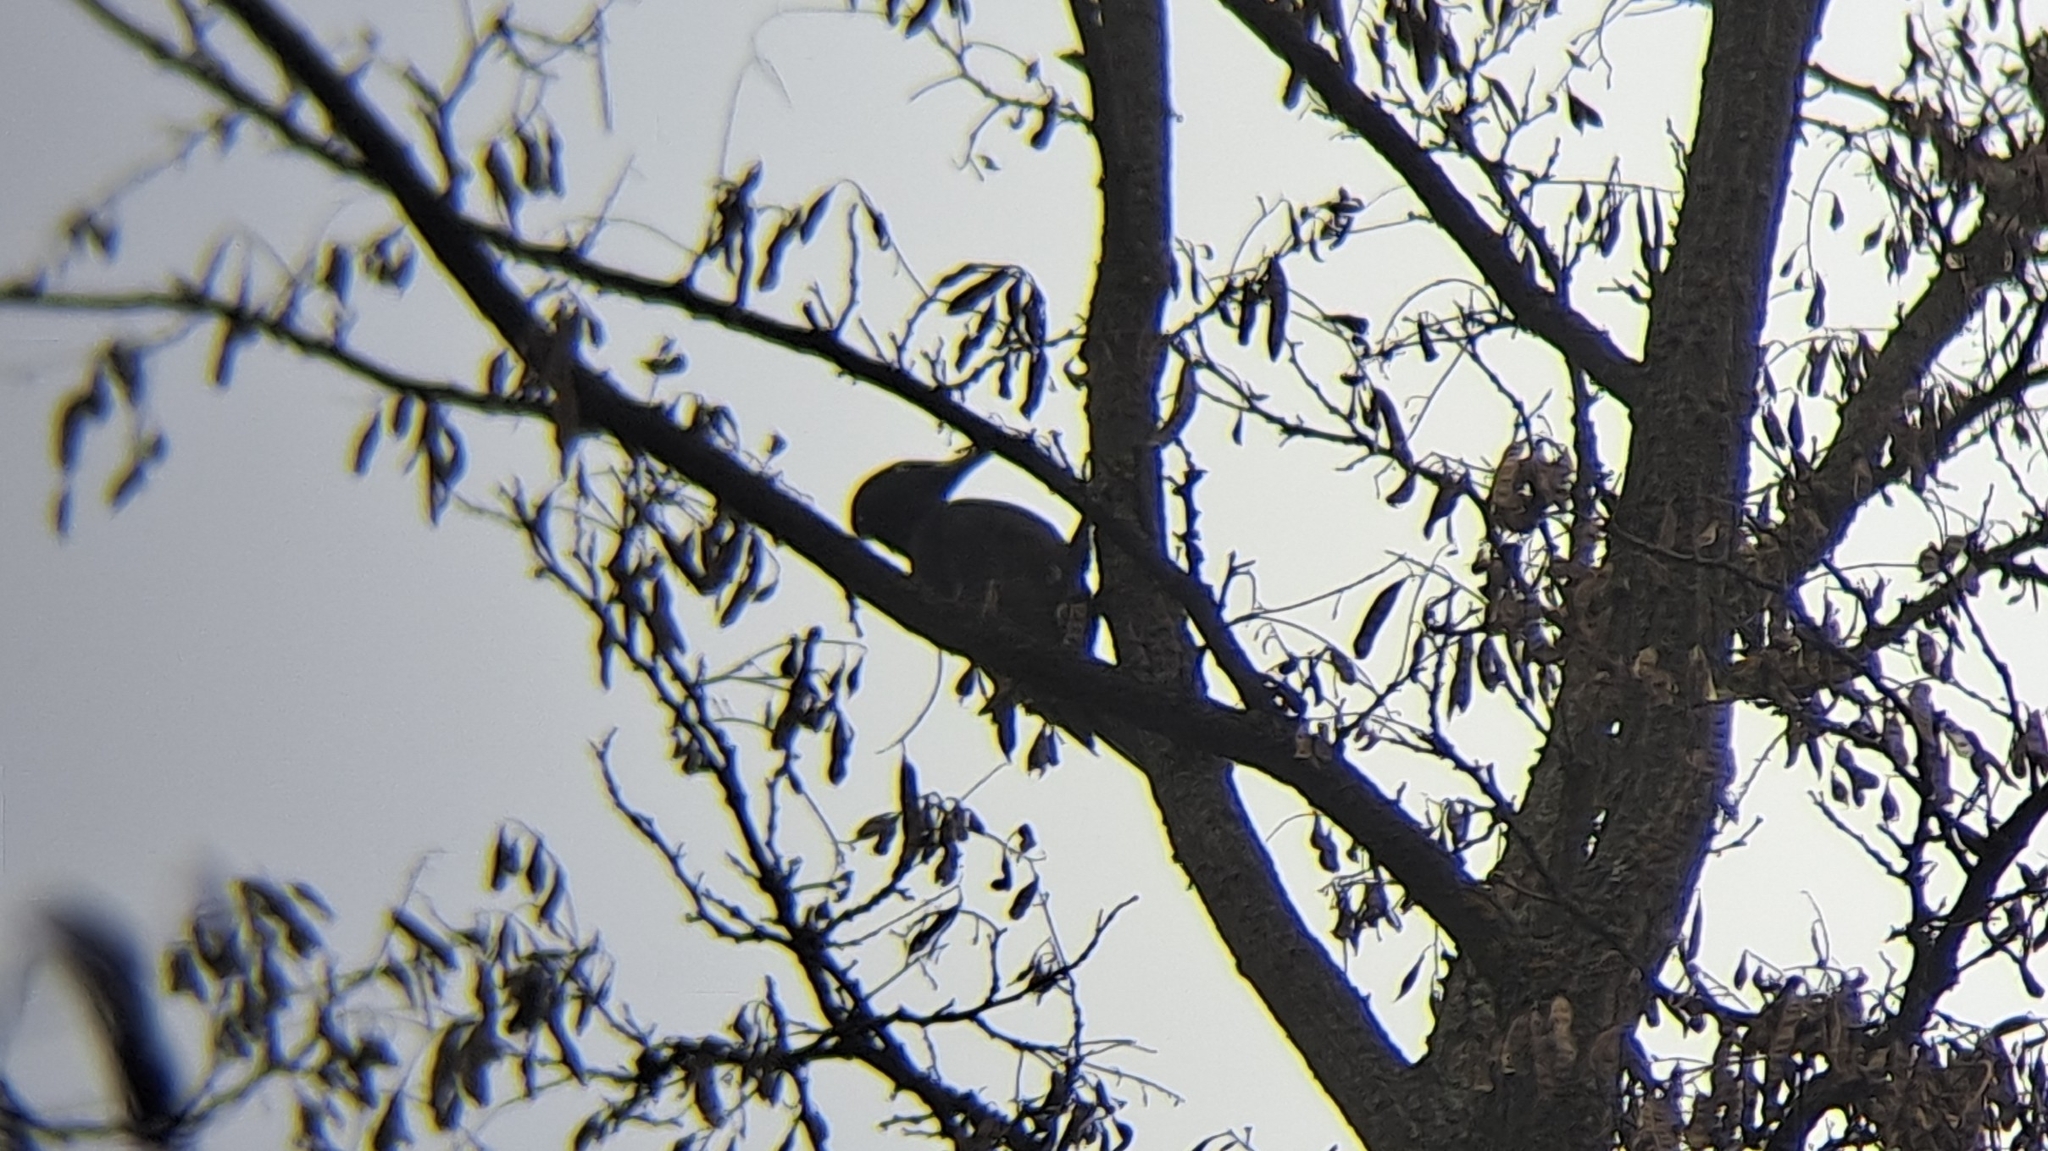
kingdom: Animalia
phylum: Chordata
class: Aves
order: Piciformes
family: Picidae
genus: Dryocopus
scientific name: Dryocopus martius
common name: Black woodpecker
